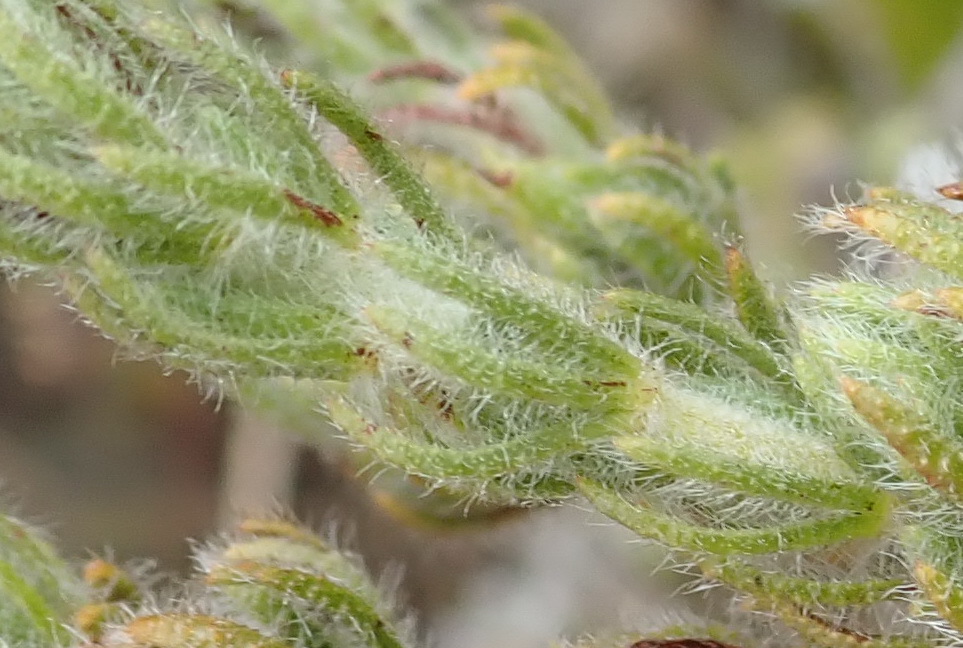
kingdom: Plantae
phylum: Tracheophyta
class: Magnoliopsida
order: Fabales
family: Fabaceae
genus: Aspalathus
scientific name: Aspalathus ciliaris
